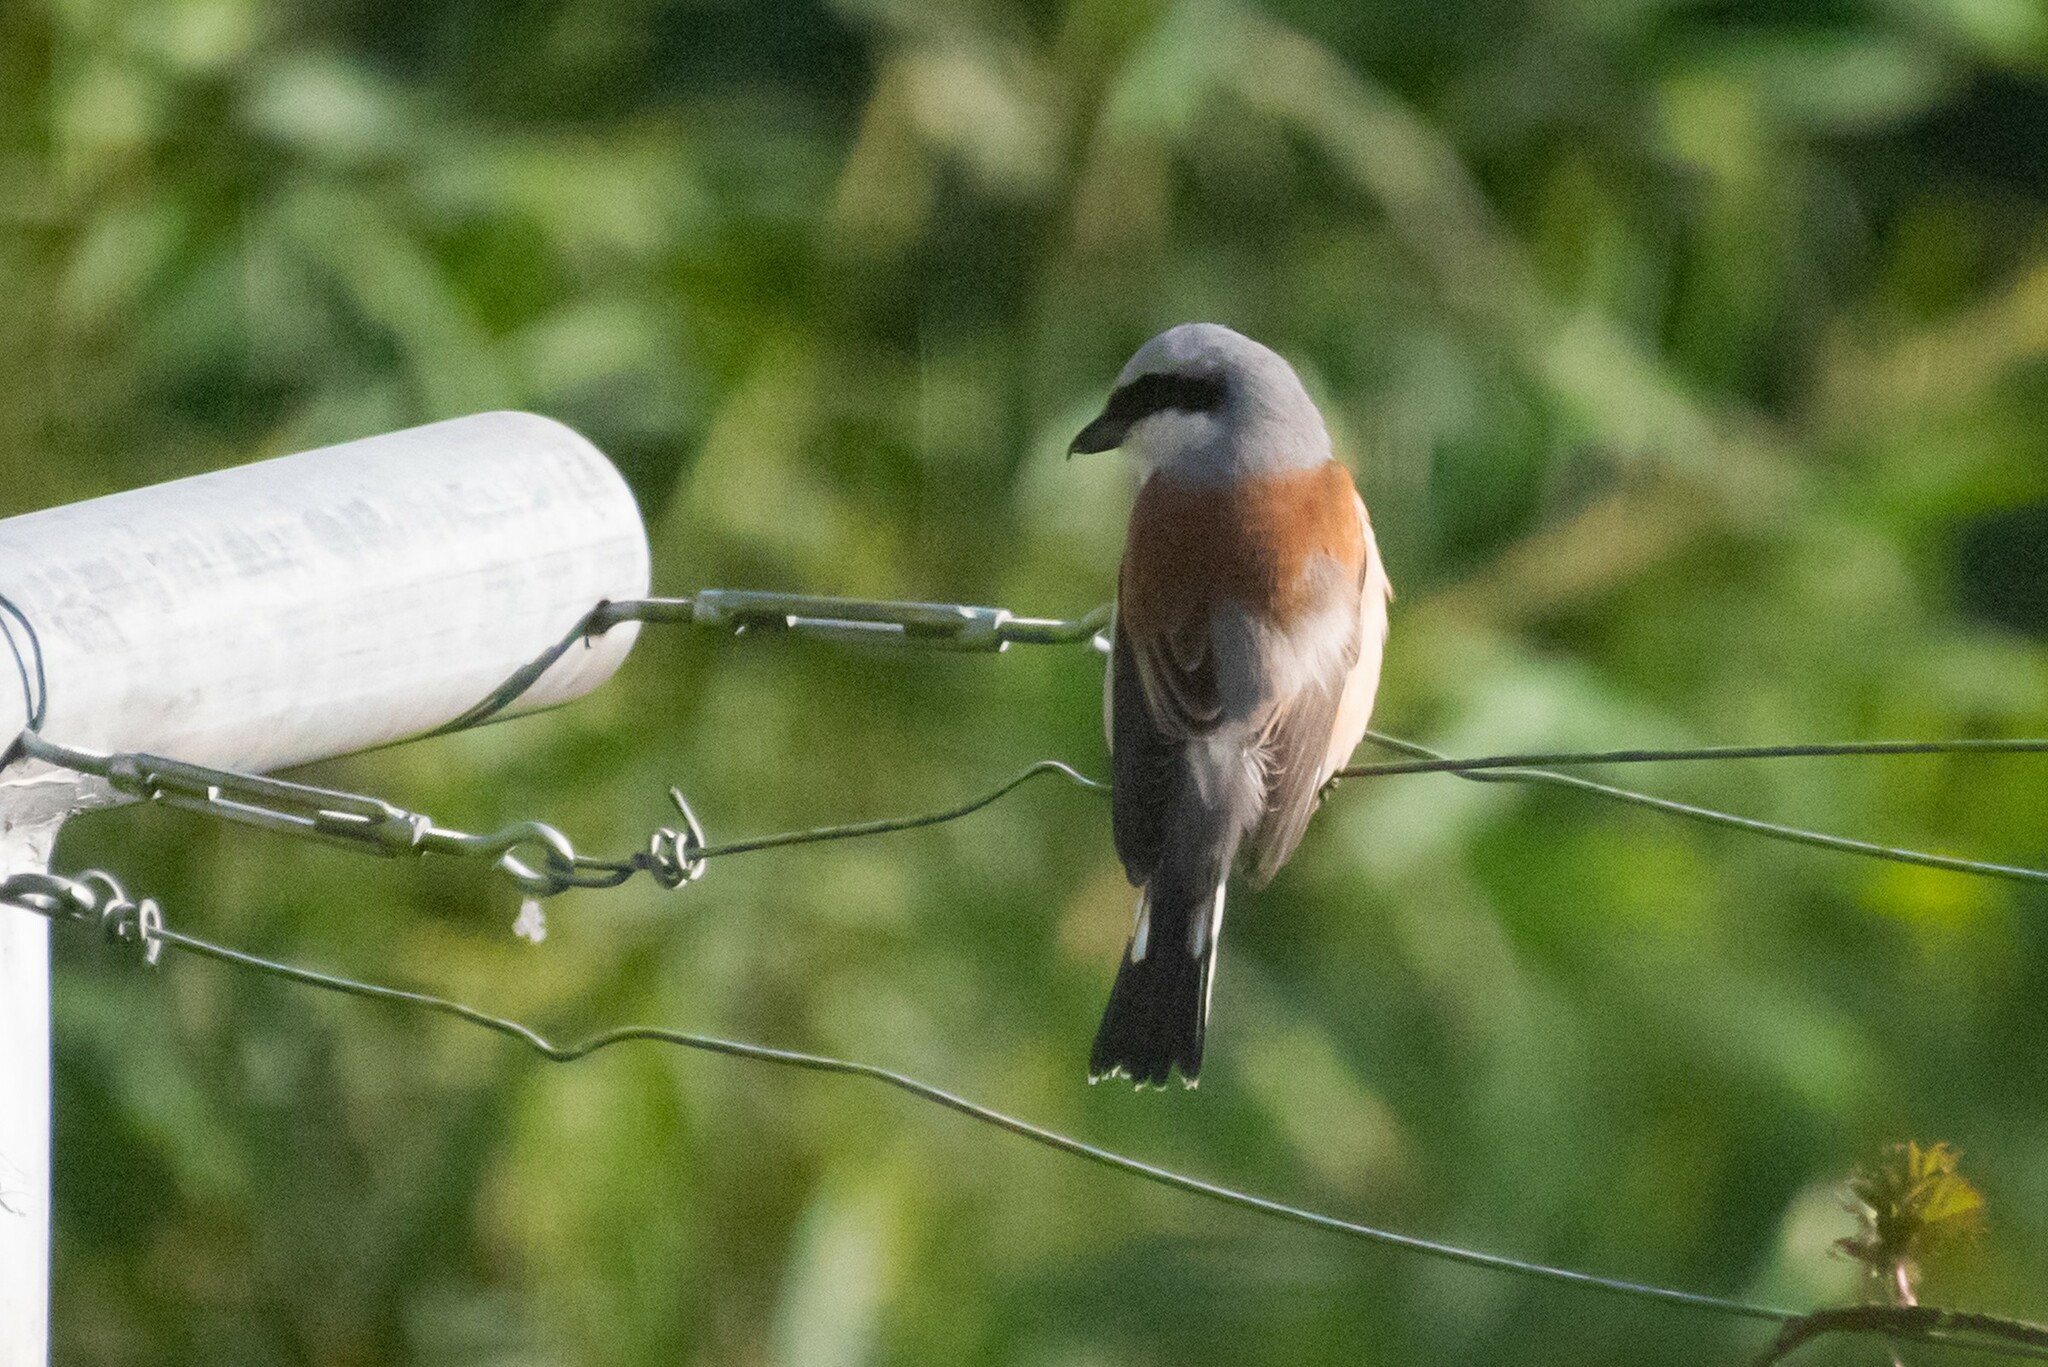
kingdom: Animalia
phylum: Chordata
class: Aves
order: Passeriformes
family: Laniidae
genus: Lanius
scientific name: Lanius collurio
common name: Red-backed shrike
